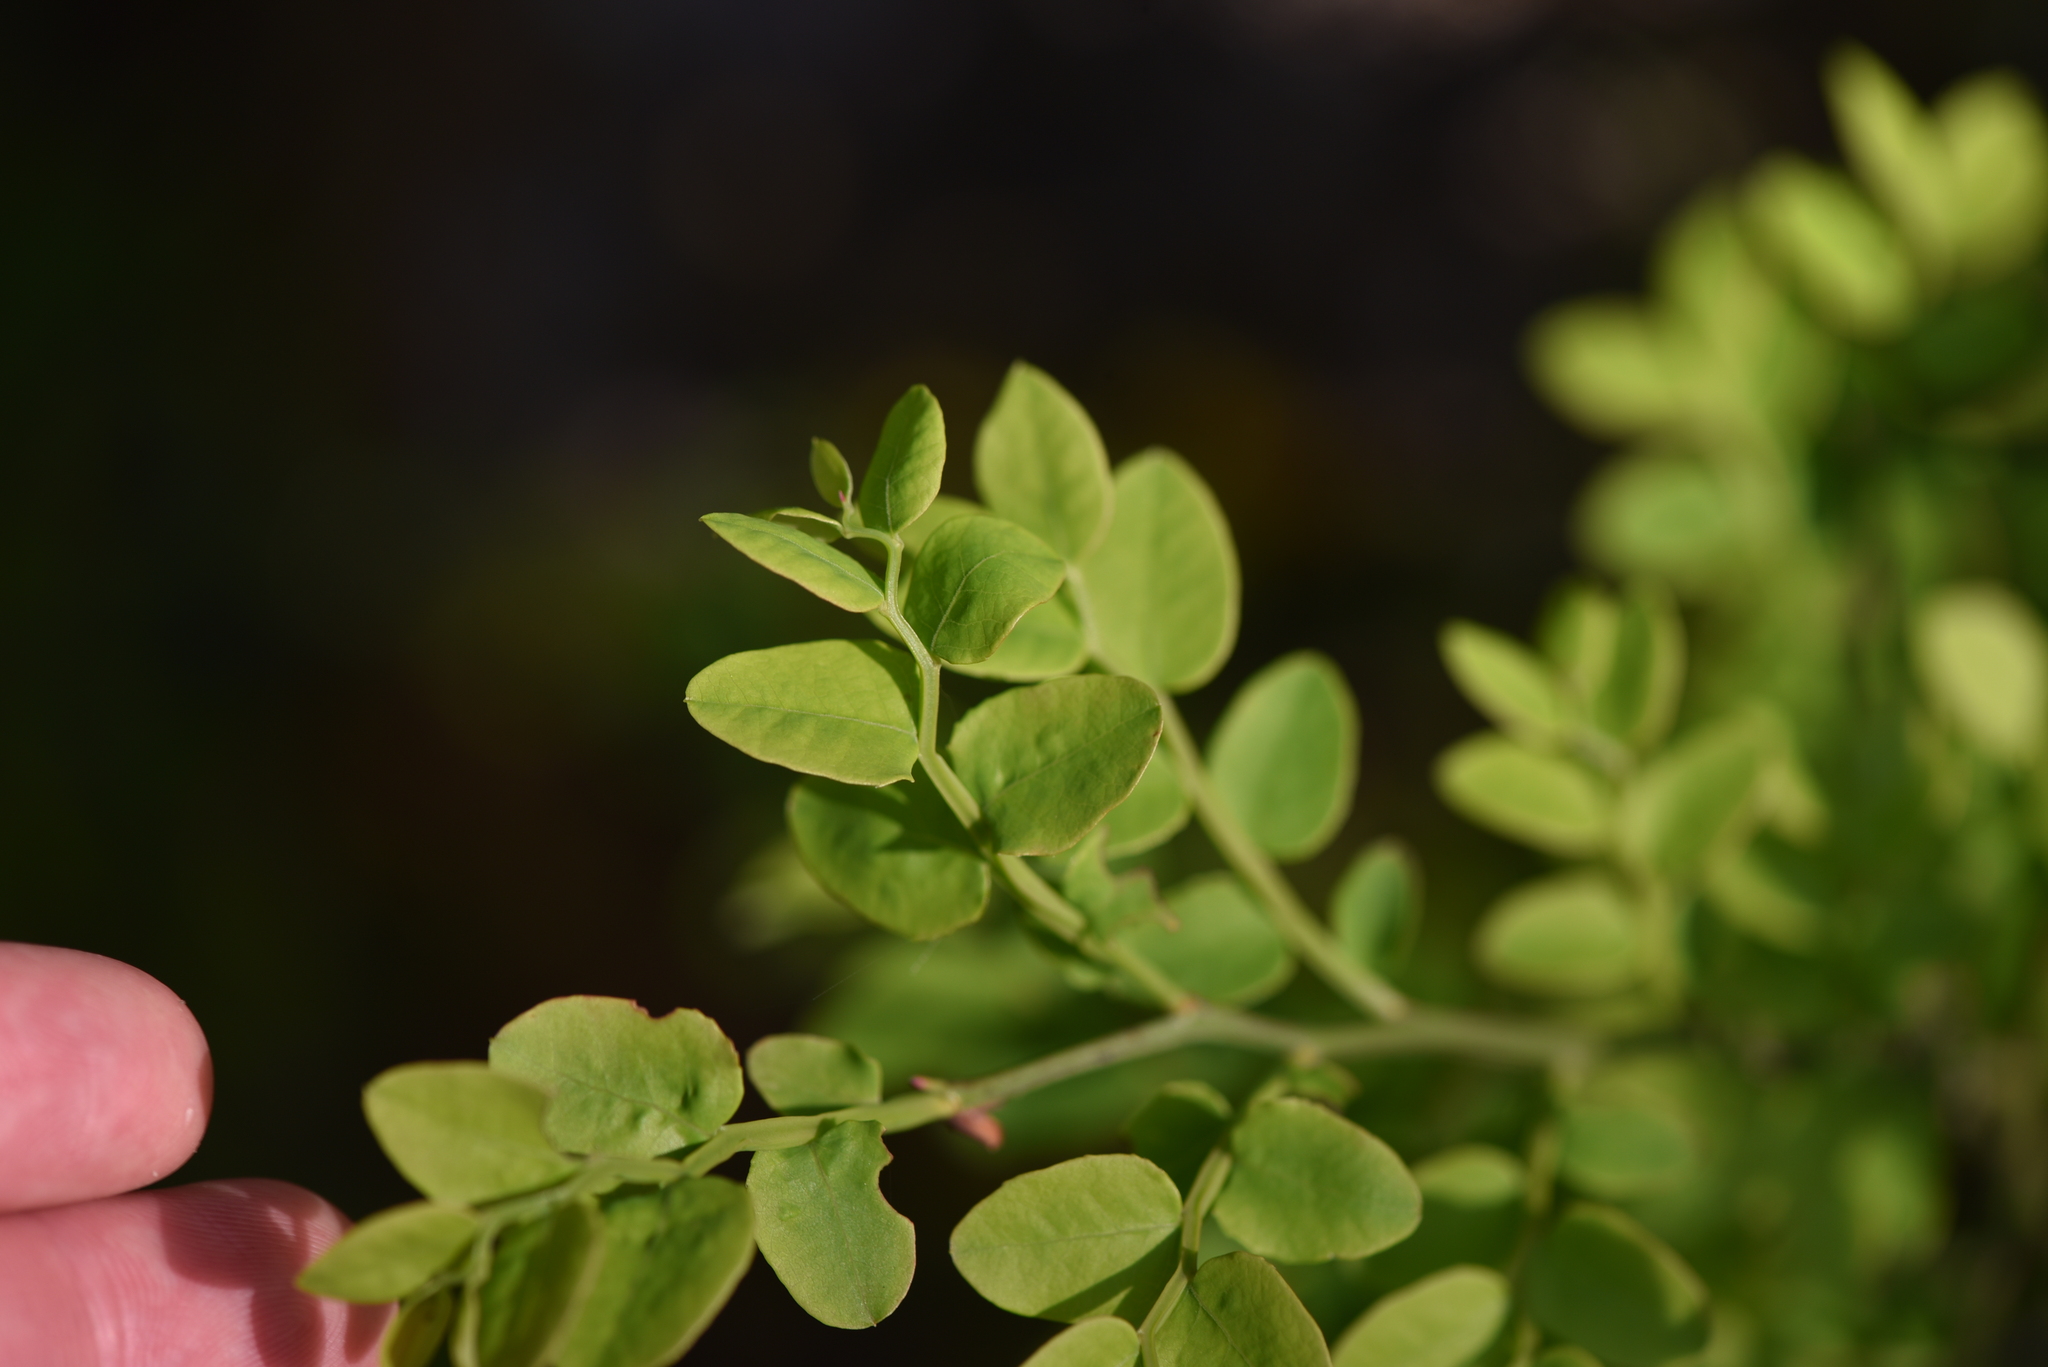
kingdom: Plantae
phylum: Tracheophyta
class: Magnoliopsida
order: Ericales
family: Ericaceae
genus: Vaccinium
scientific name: Vaccinium parvifolium
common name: Red-huckleberry
